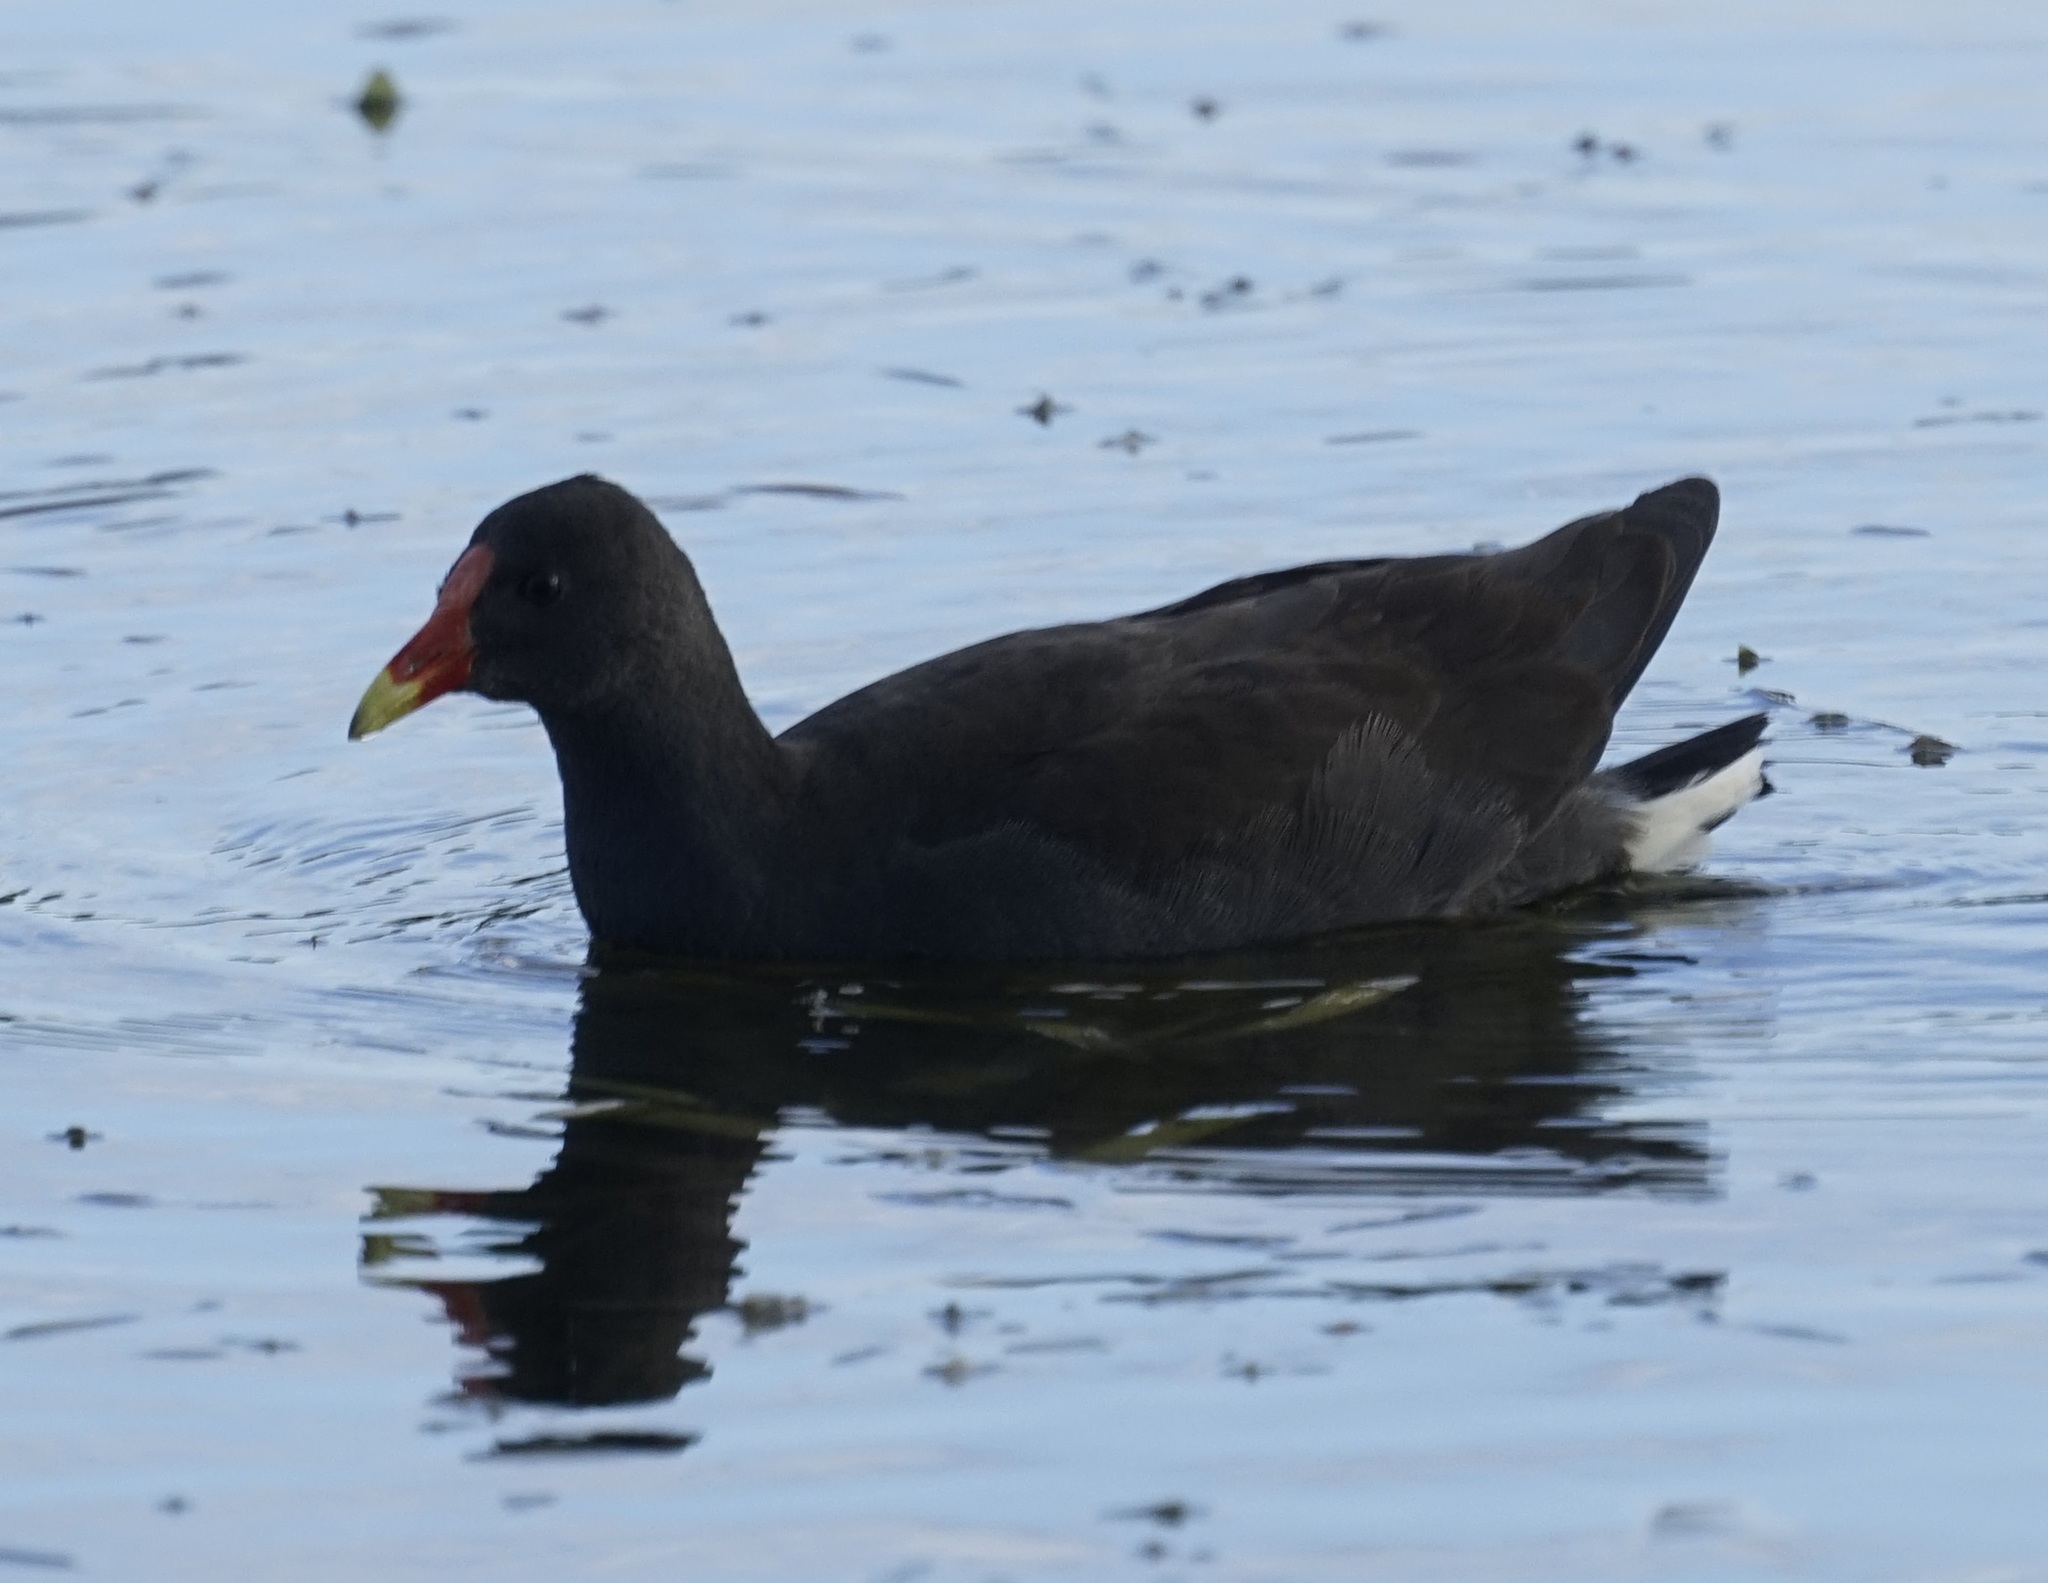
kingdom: Animalia
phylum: Chordata
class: Aves
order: Gruiformes
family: Rallidae
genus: Gallinula
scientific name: Gallinula tenebrosa
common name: Dusky moorhen
